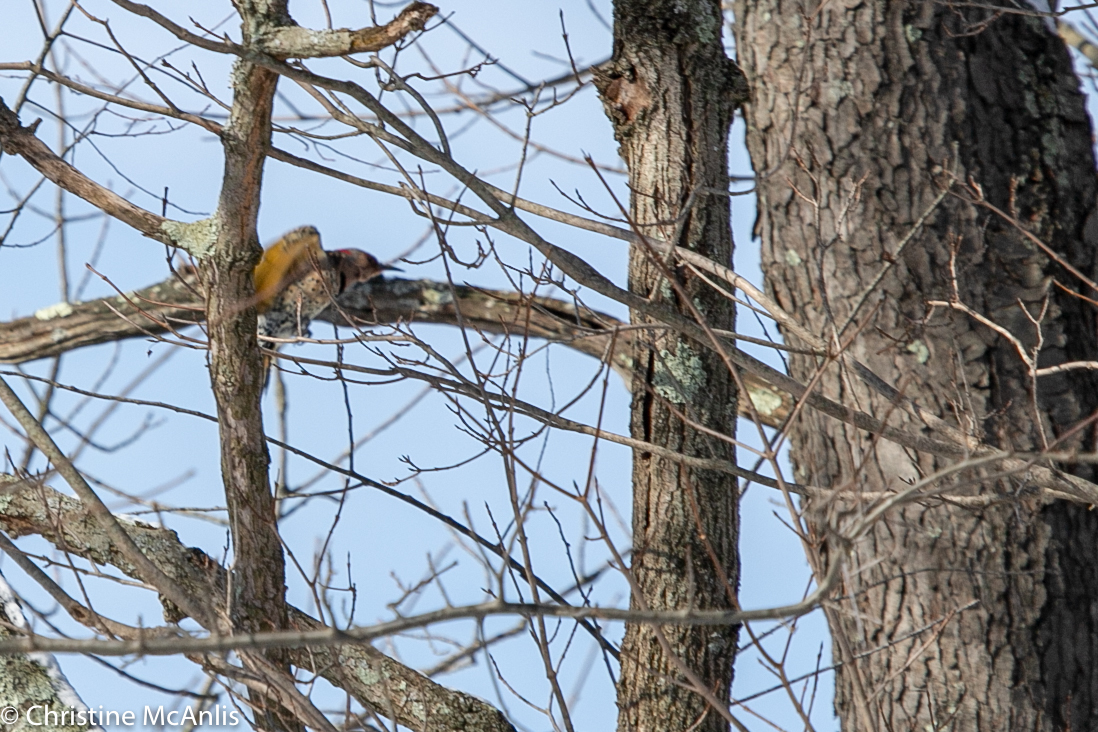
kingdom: Animalia
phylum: Chordata
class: Aves
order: Piciformes
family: Picidae
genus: Colaptes
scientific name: Colaptes auratus
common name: Northern flicker
